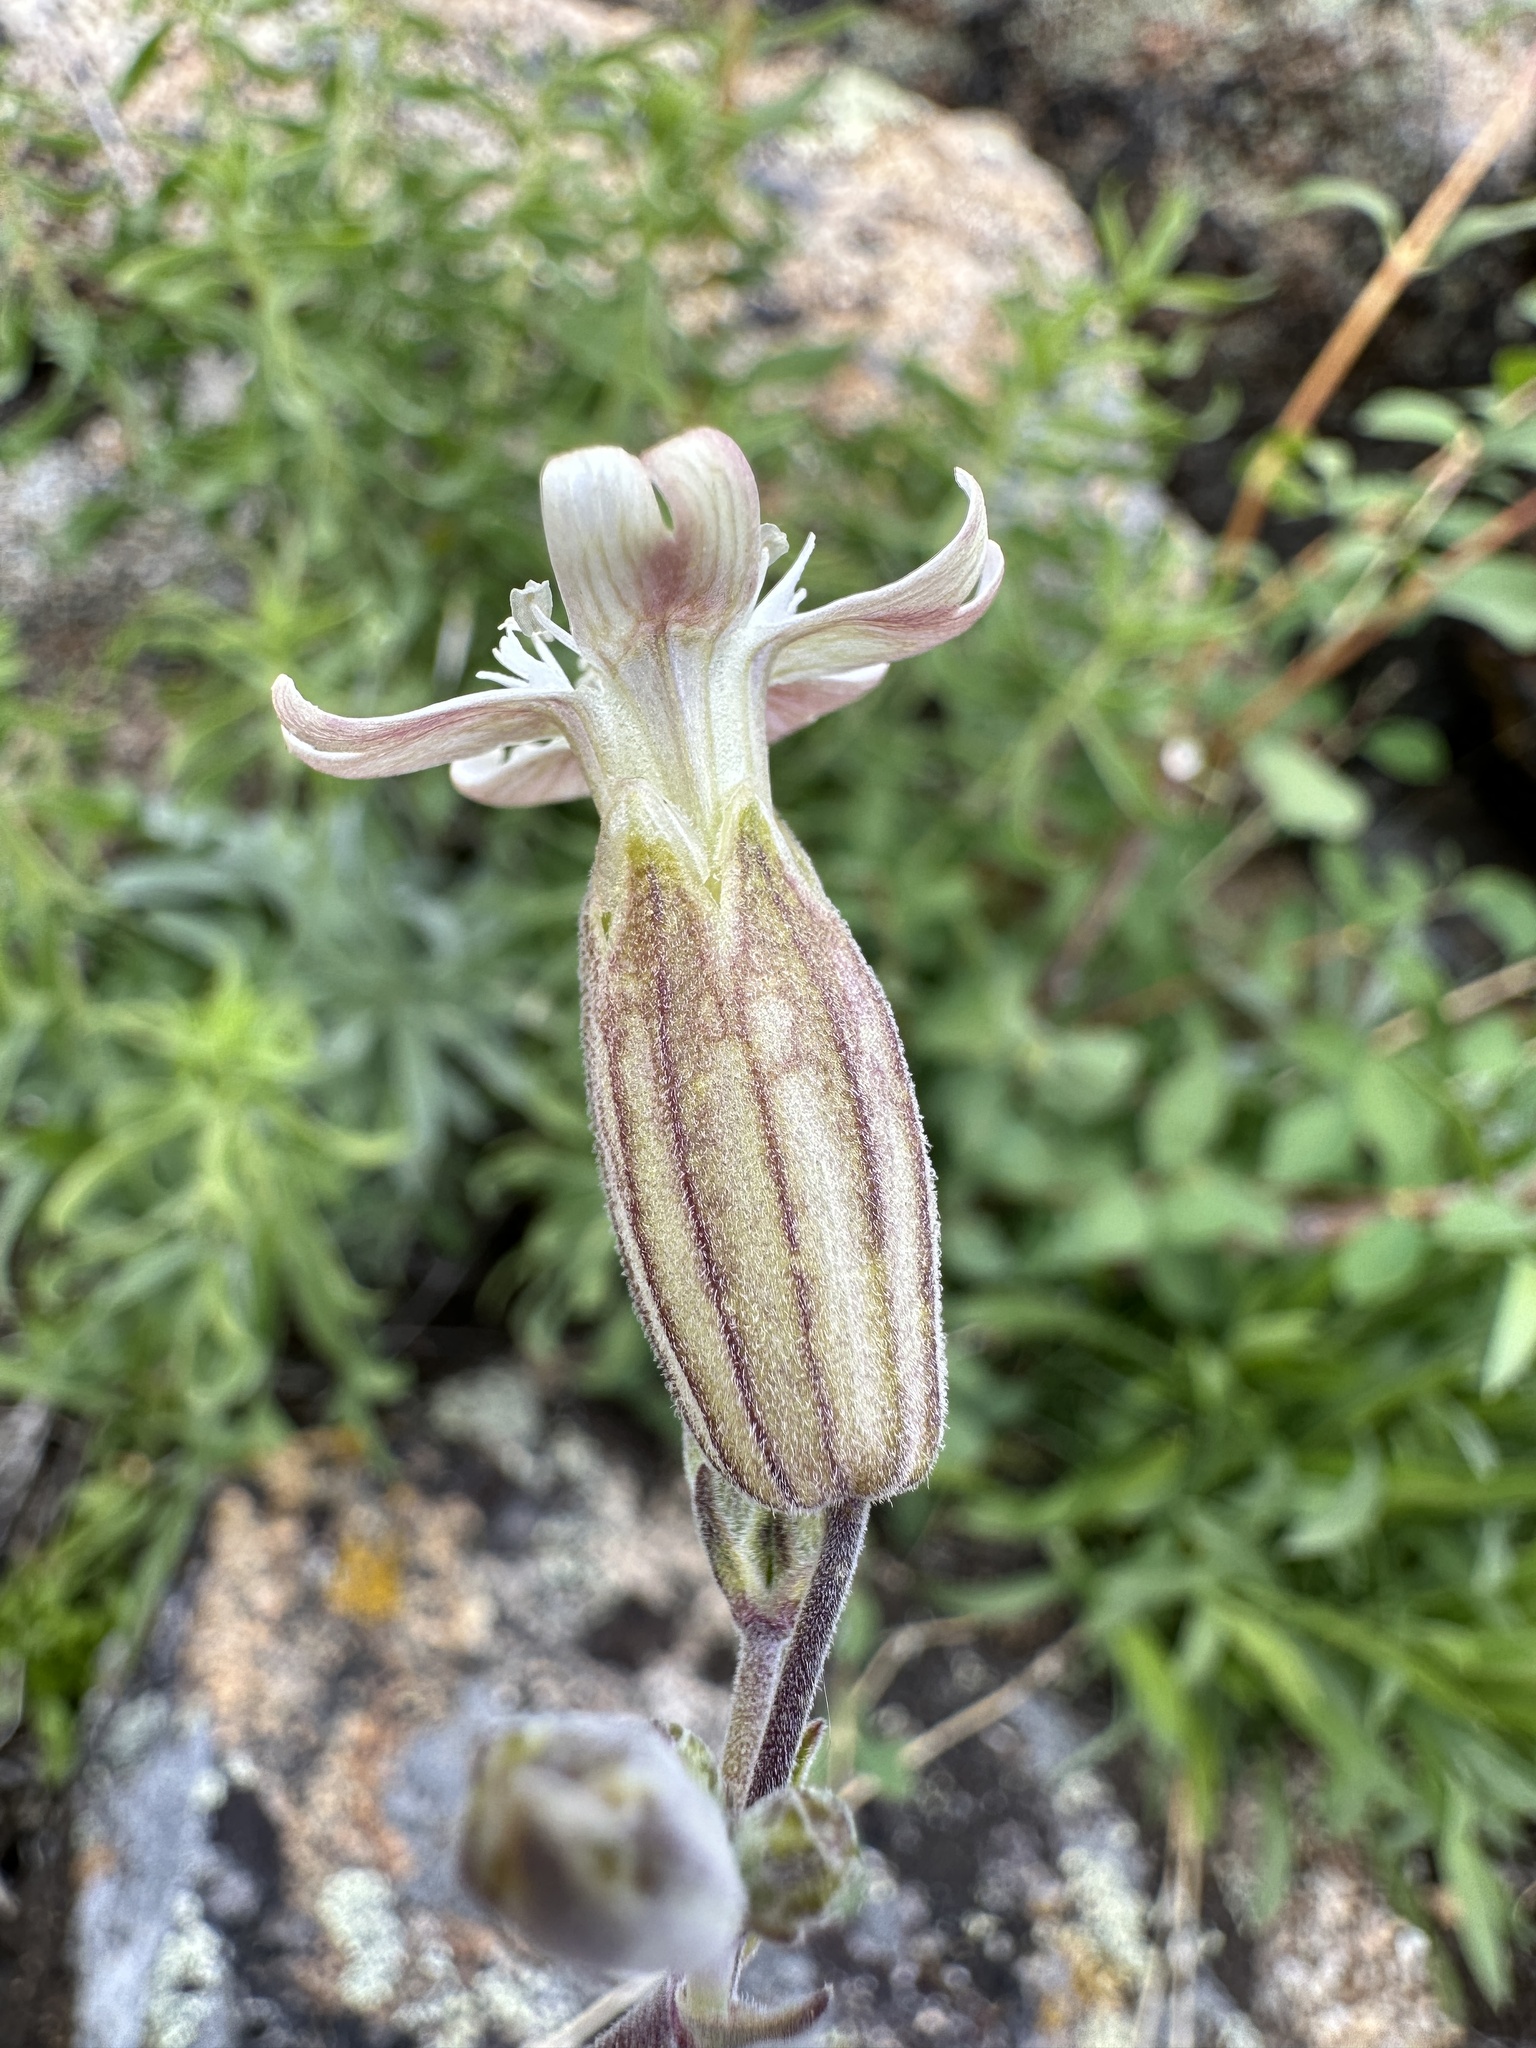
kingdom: Plantae
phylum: Tracheophyta
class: Magnoliopsida
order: Caryophyllales
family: Caryophyllaceae
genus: Silene
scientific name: Silene douglasii
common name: Douglas's catchfly
